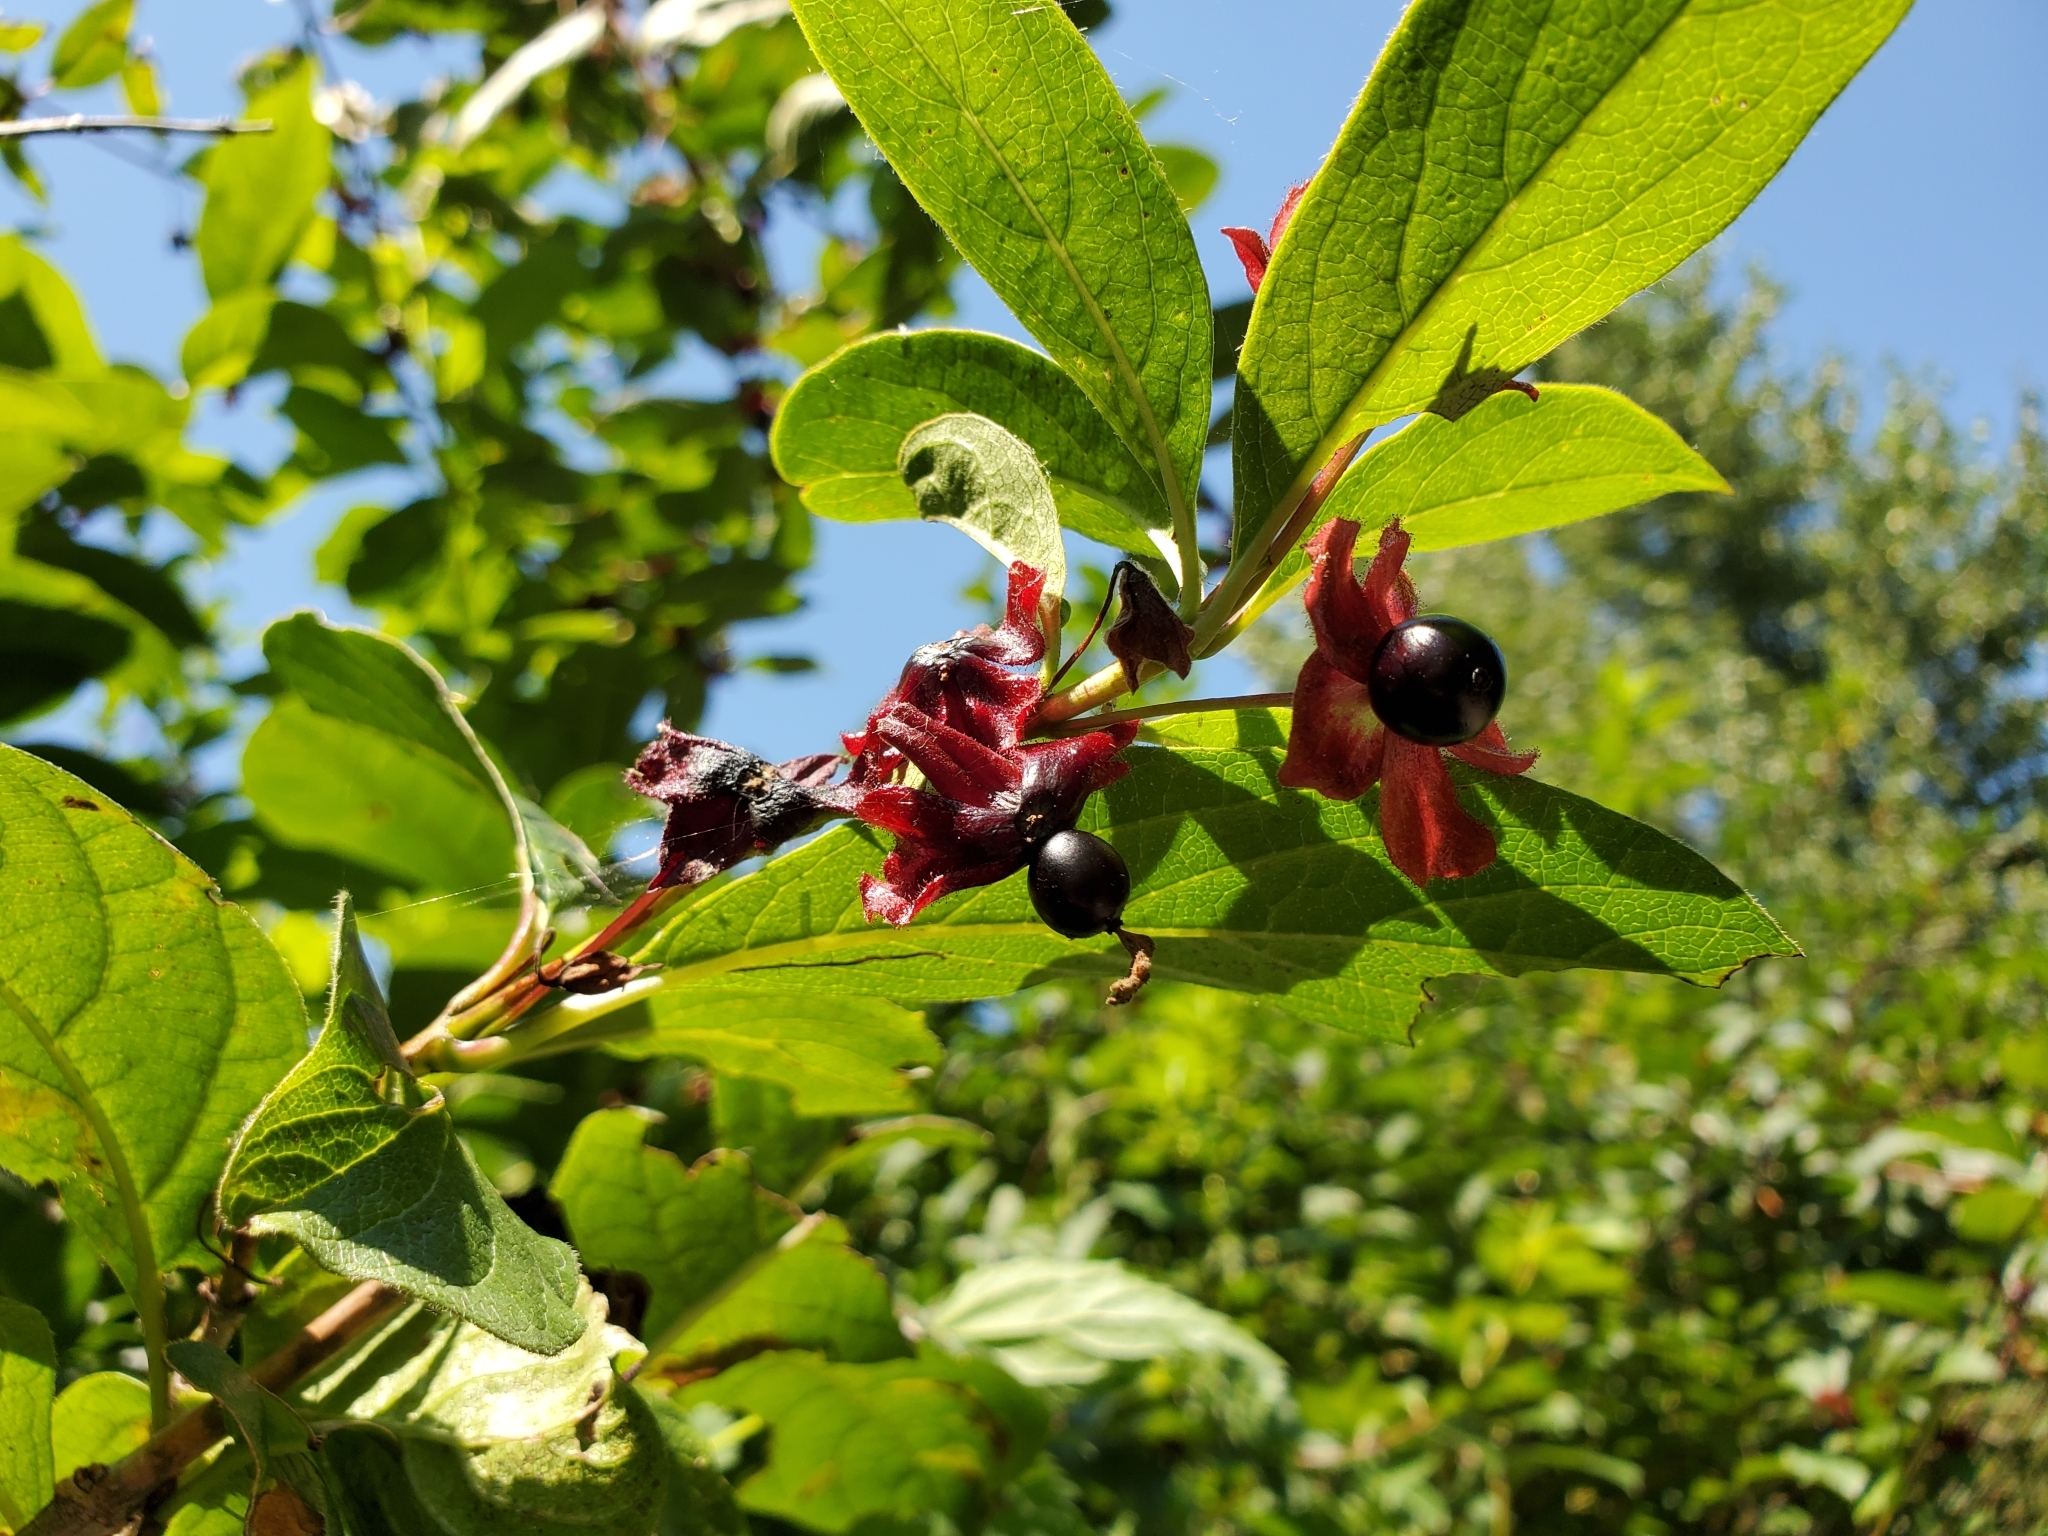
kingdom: Plantae
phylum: Tracheophyta
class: Magnoliopsida
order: Dipsacales
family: Caprifoliaceae
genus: Lonicera
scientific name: Lonicera involucrata
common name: Californian honeysuckle
